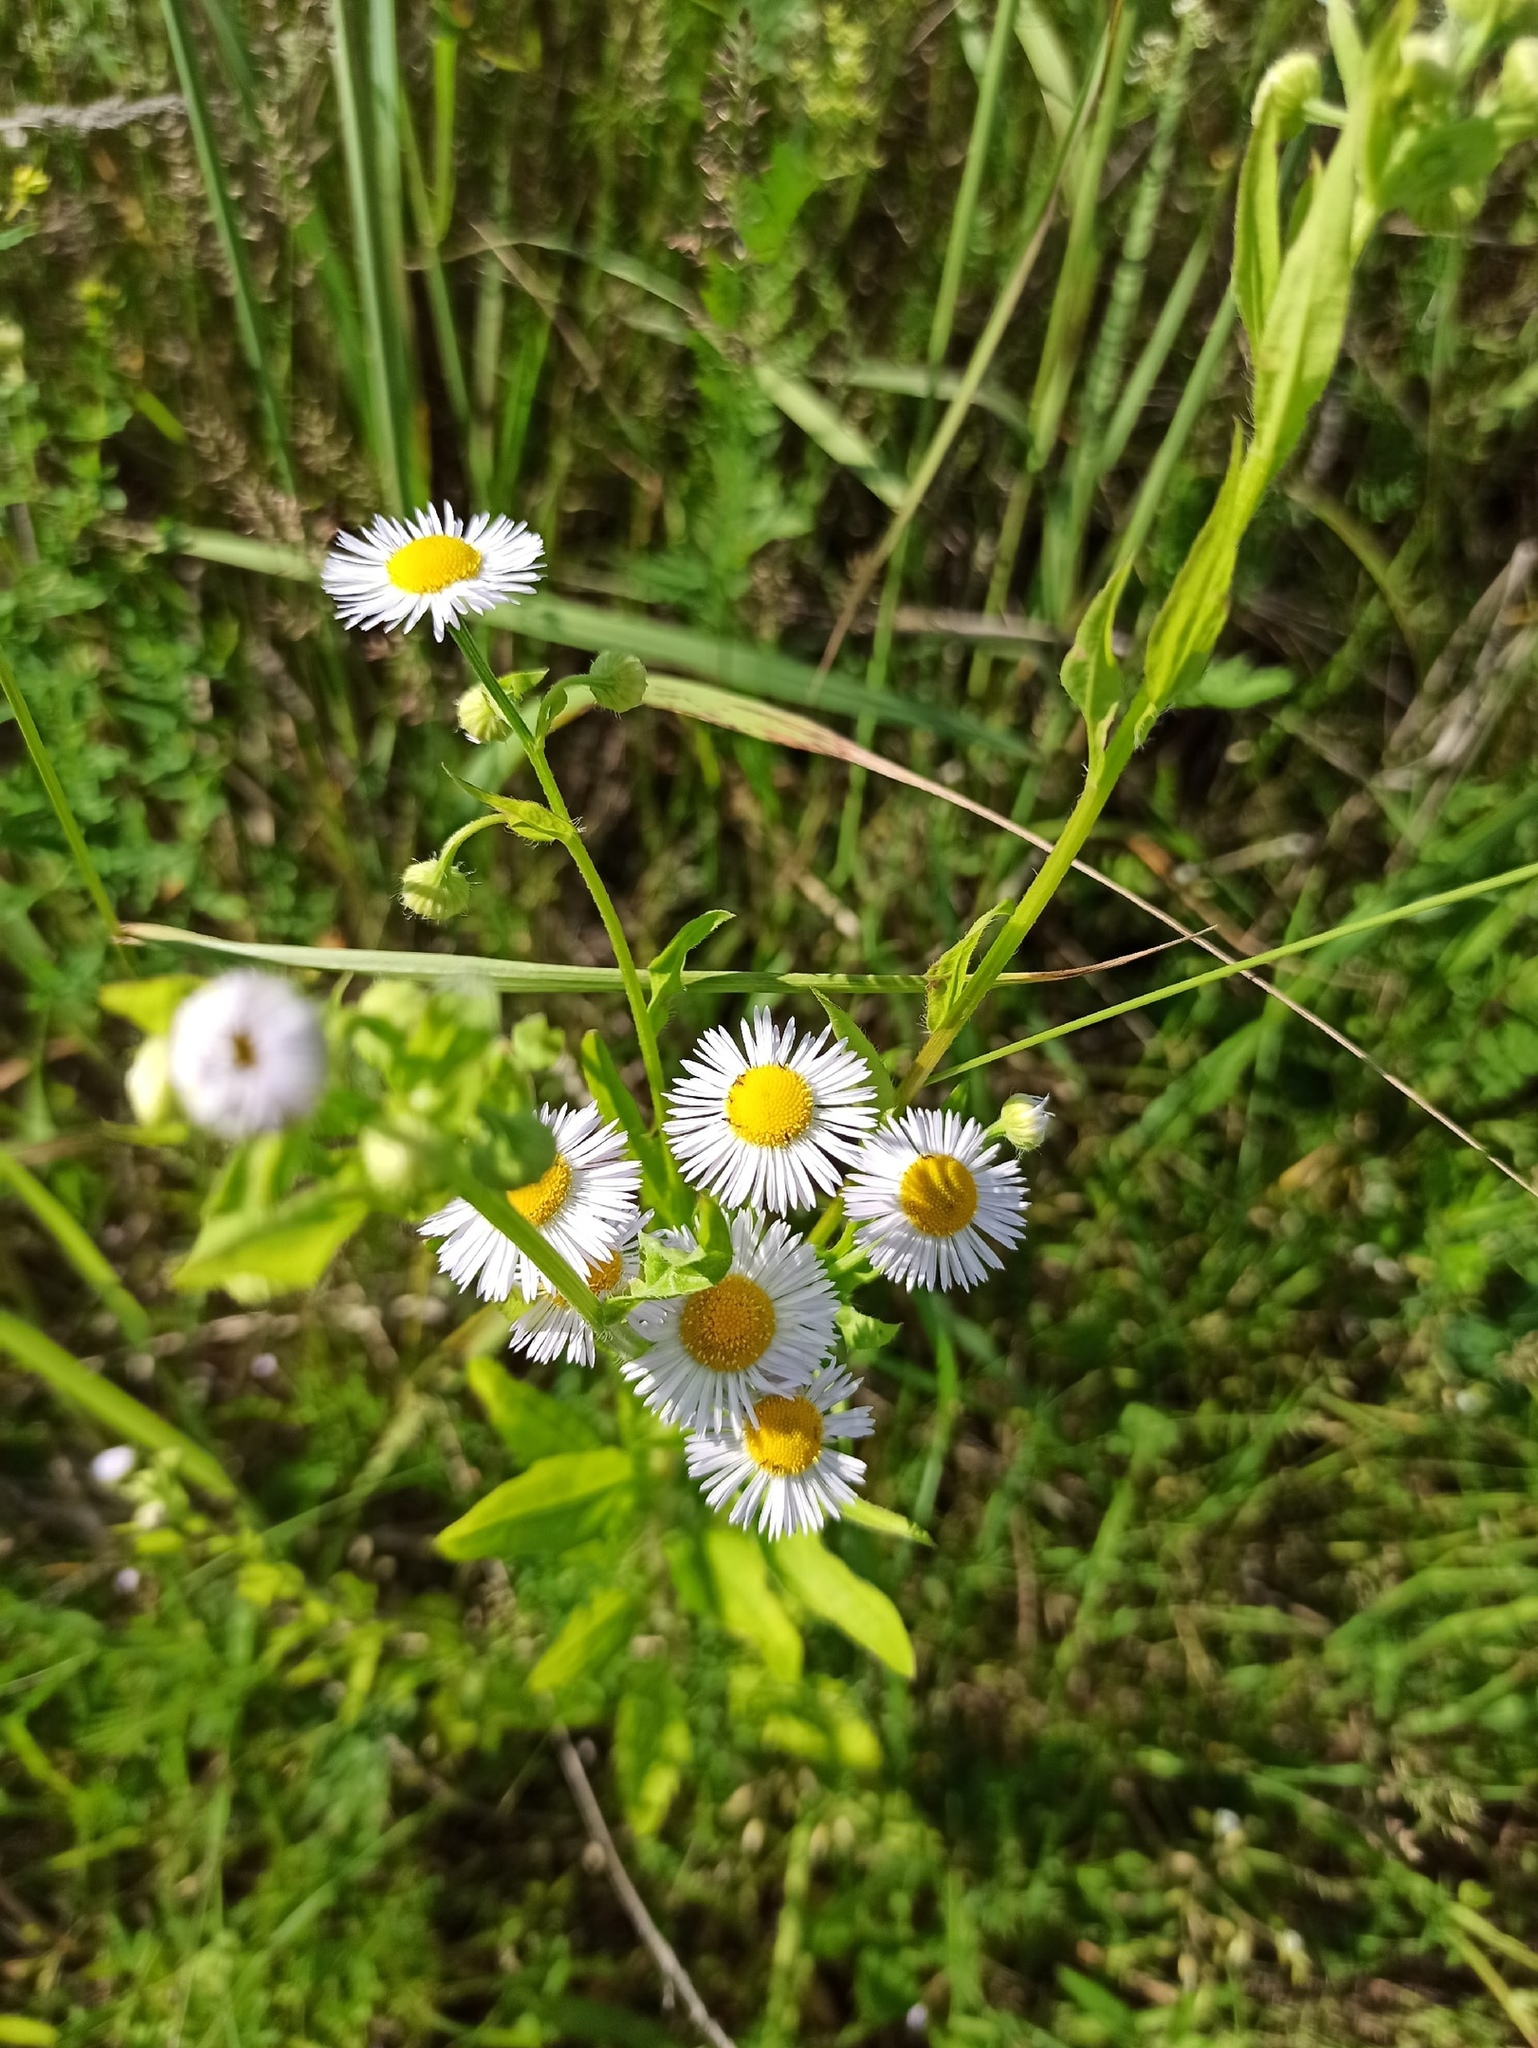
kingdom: Plantae
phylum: Tracheophyta
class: Magnoliopsida
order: Asterales
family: Asteraceae
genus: Erigeron
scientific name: Erigeron annuus
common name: Tall fleabane
